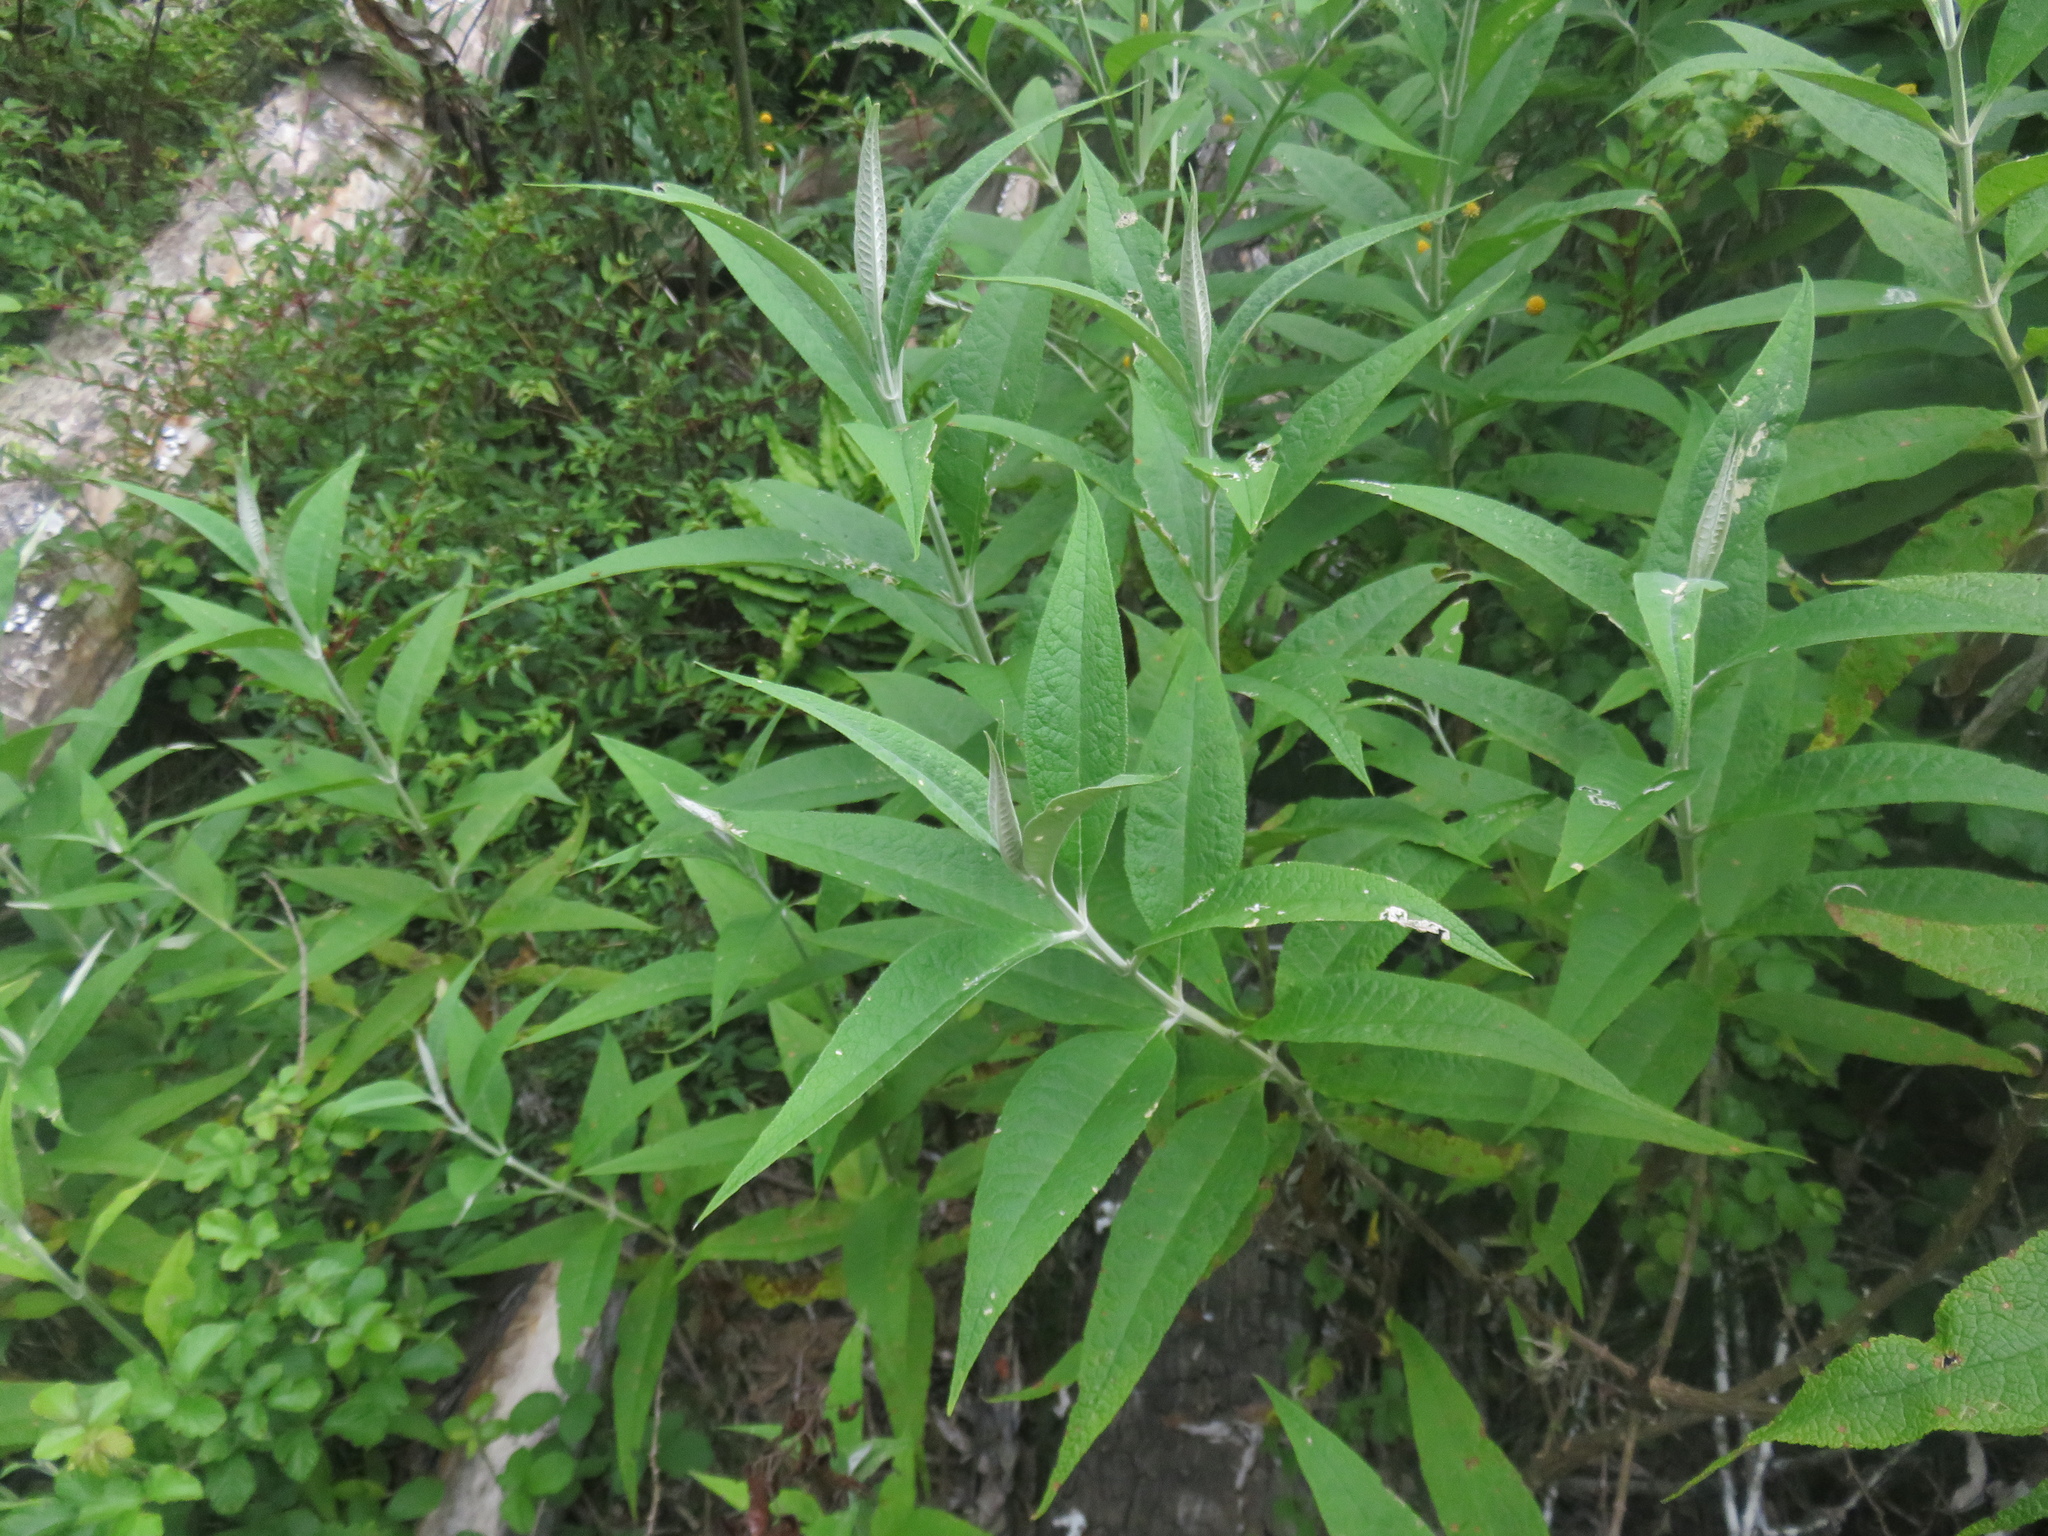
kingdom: Plantae
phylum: Tracheophyta
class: Magnoliopsida
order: Lamiales
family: Scrophulariaceae
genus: Buddleja
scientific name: Buddleja globosa
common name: Orange-ball-tree
